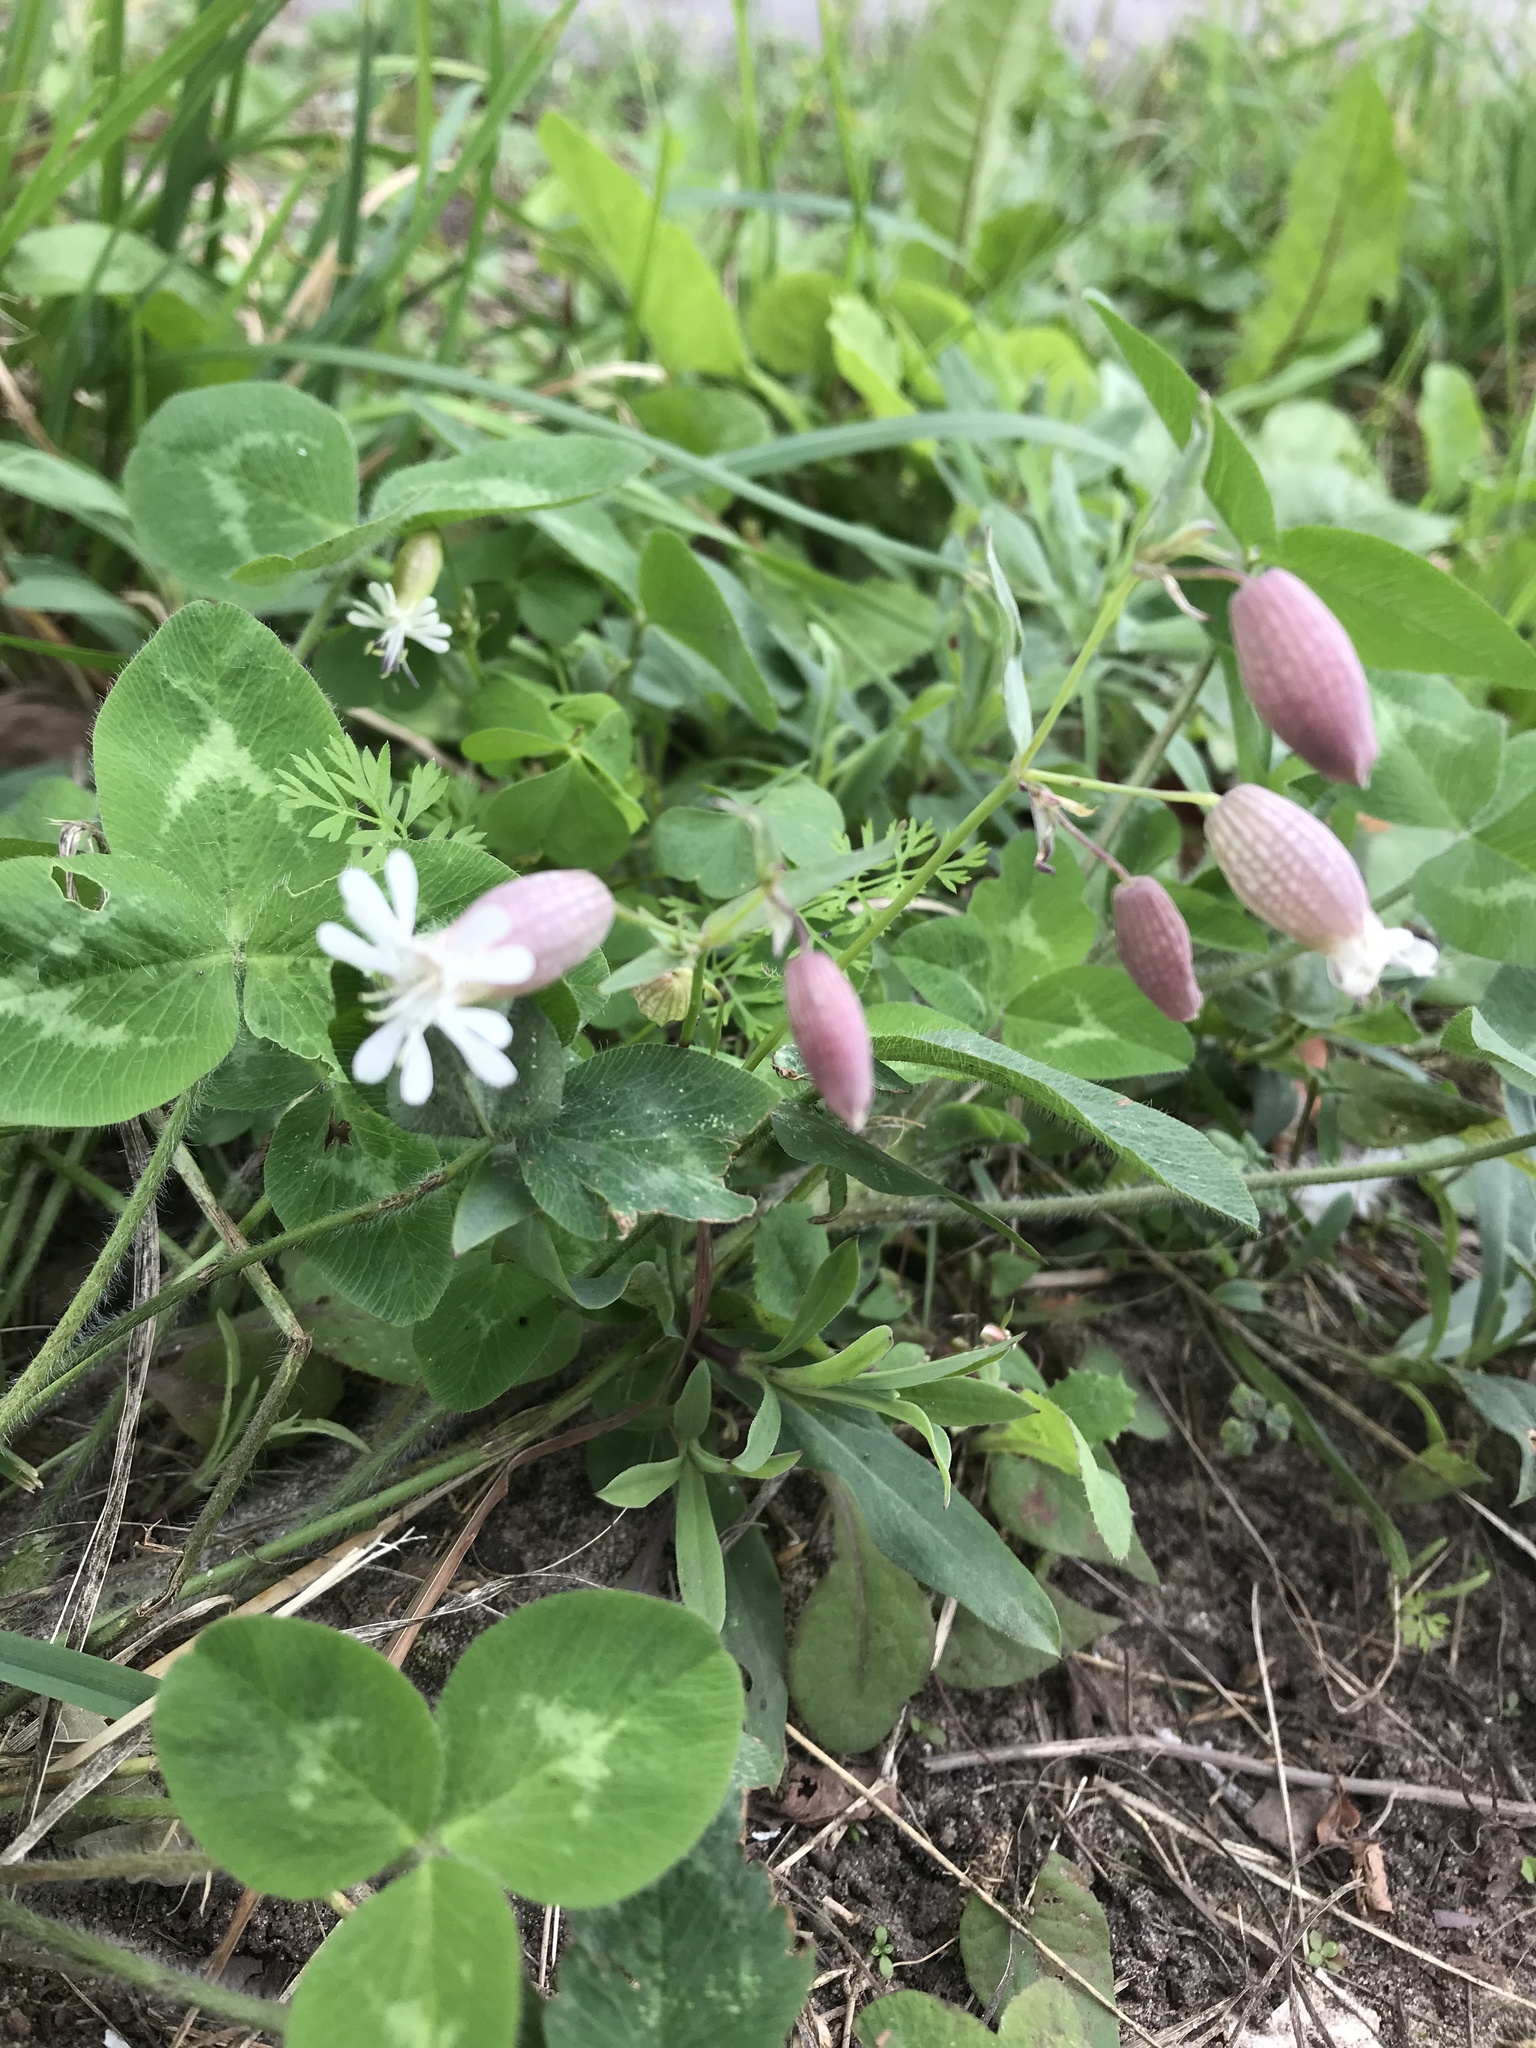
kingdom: Plantae
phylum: Tracheophyta
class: Magnoliopsida
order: Caryophyllales
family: Caryophyllaceae
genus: Silene
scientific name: Silene vulgaris
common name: Bladder campion
